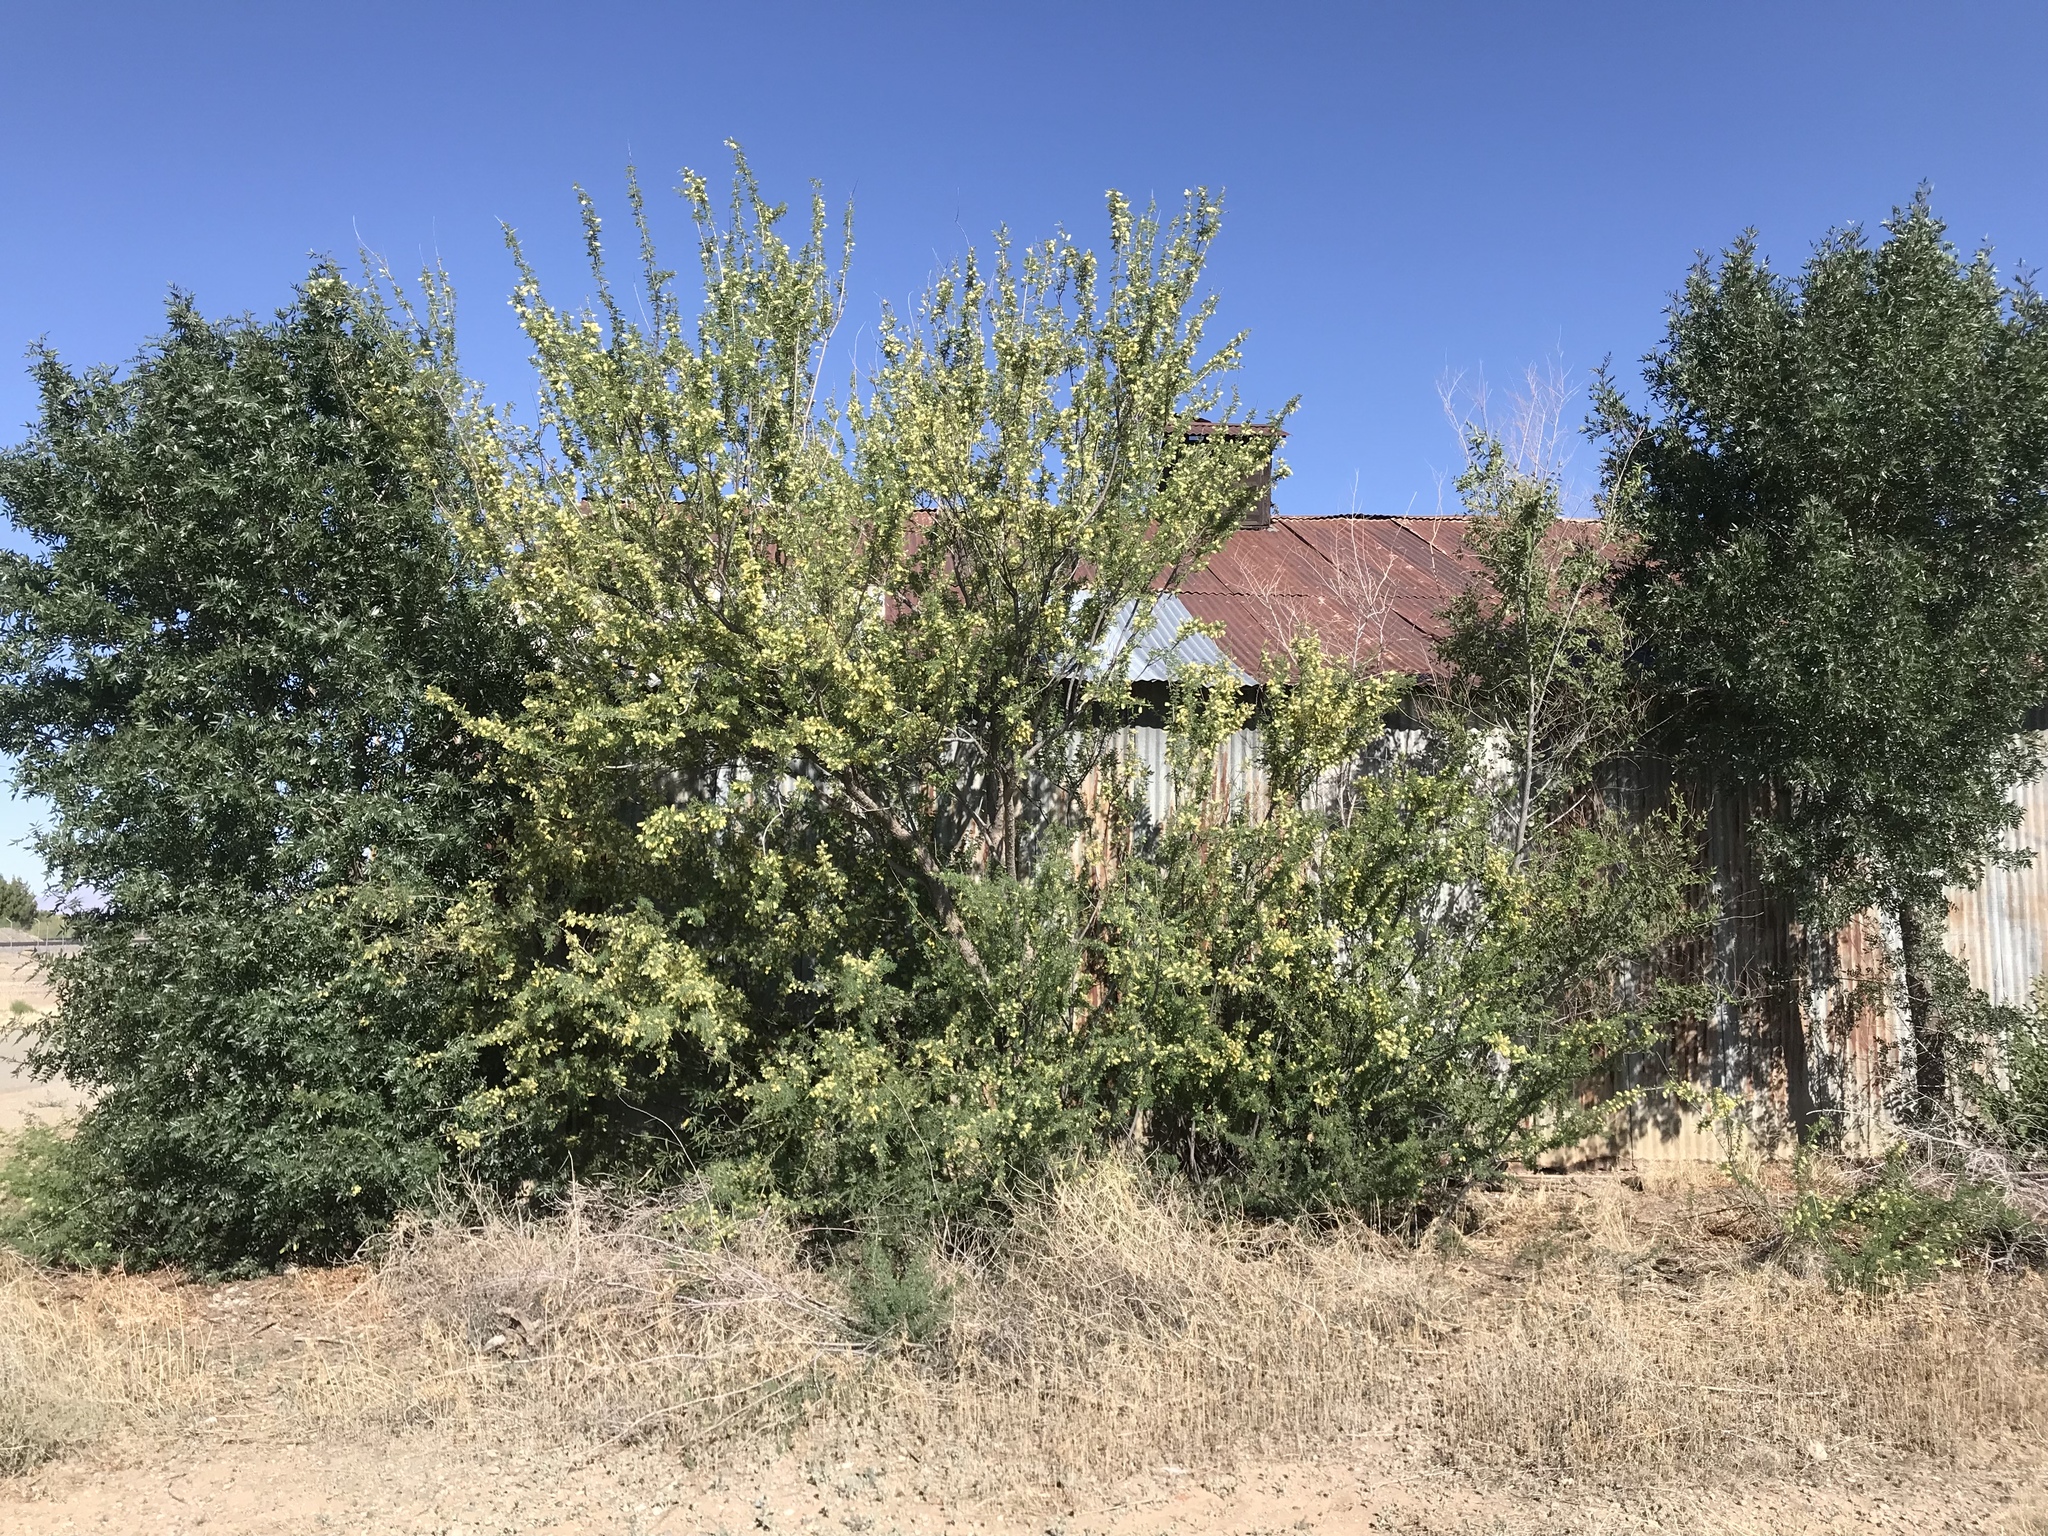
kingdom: Plantae
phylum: Tracheophyta
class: Magnoliopsida
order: Fabales
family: Fabaceae
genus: Senegalia
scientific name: Senegalia greggii
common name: Texas-mimosa
